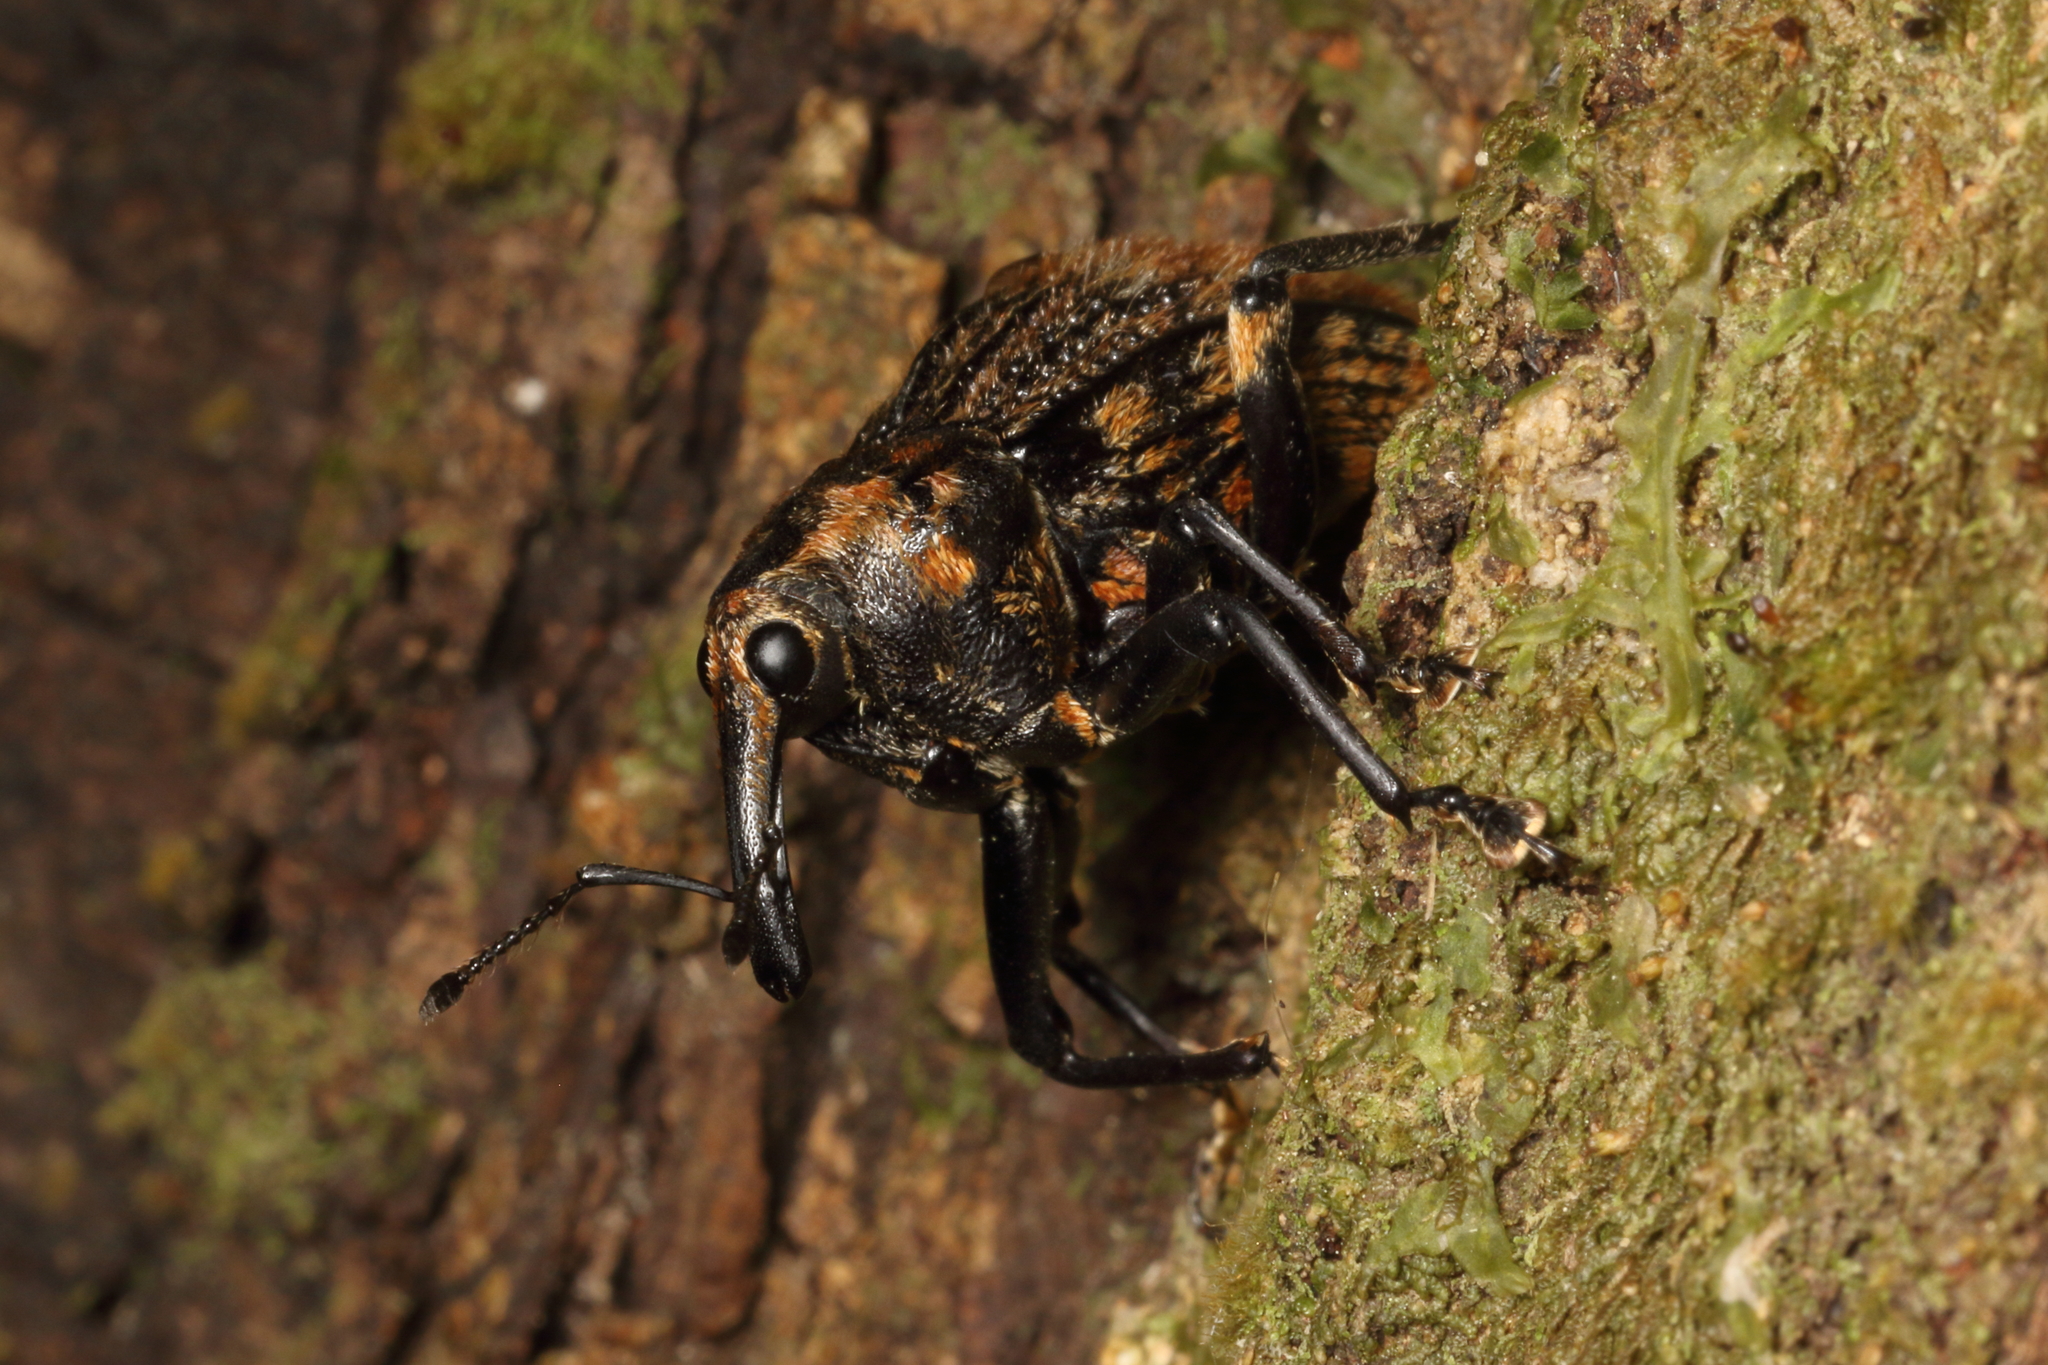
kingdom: Animalia
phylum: Arthropoda
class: Insecta
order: Coleoptera
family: Curculionidae
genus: Rhynchodes
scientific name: Rhynchodes ursus
